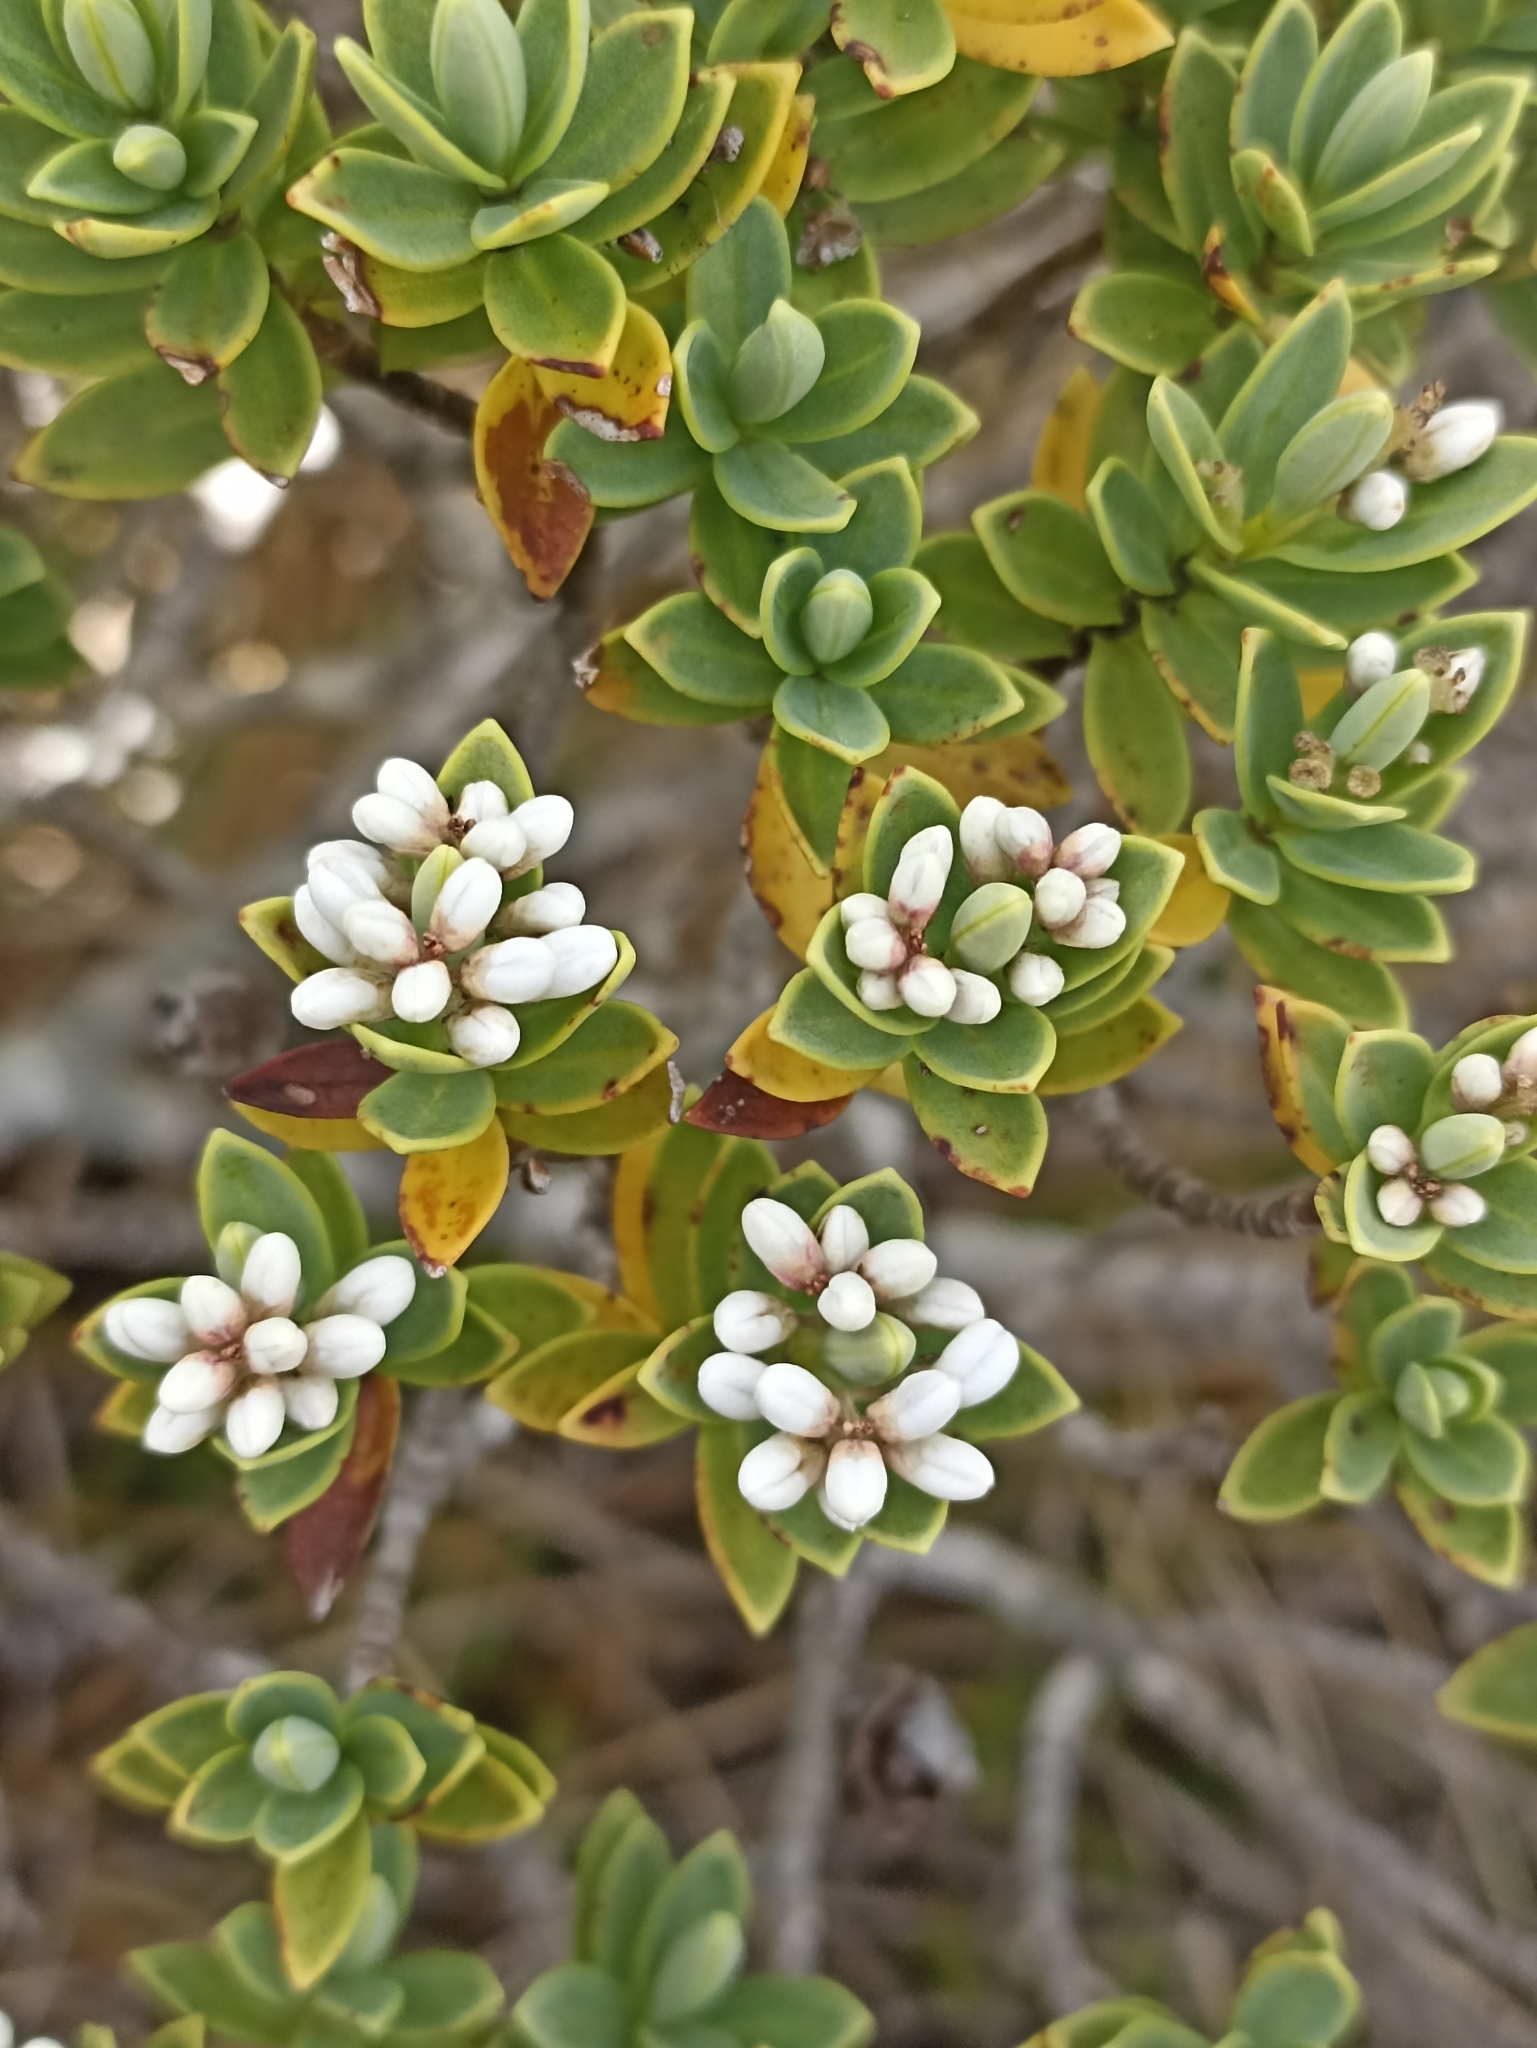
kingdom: Plantae
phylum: Tracheophyta
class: Magnoliopsida
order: Lamiales
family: Plantaginaceae
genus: Veronica
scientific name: Veronica topiaria
